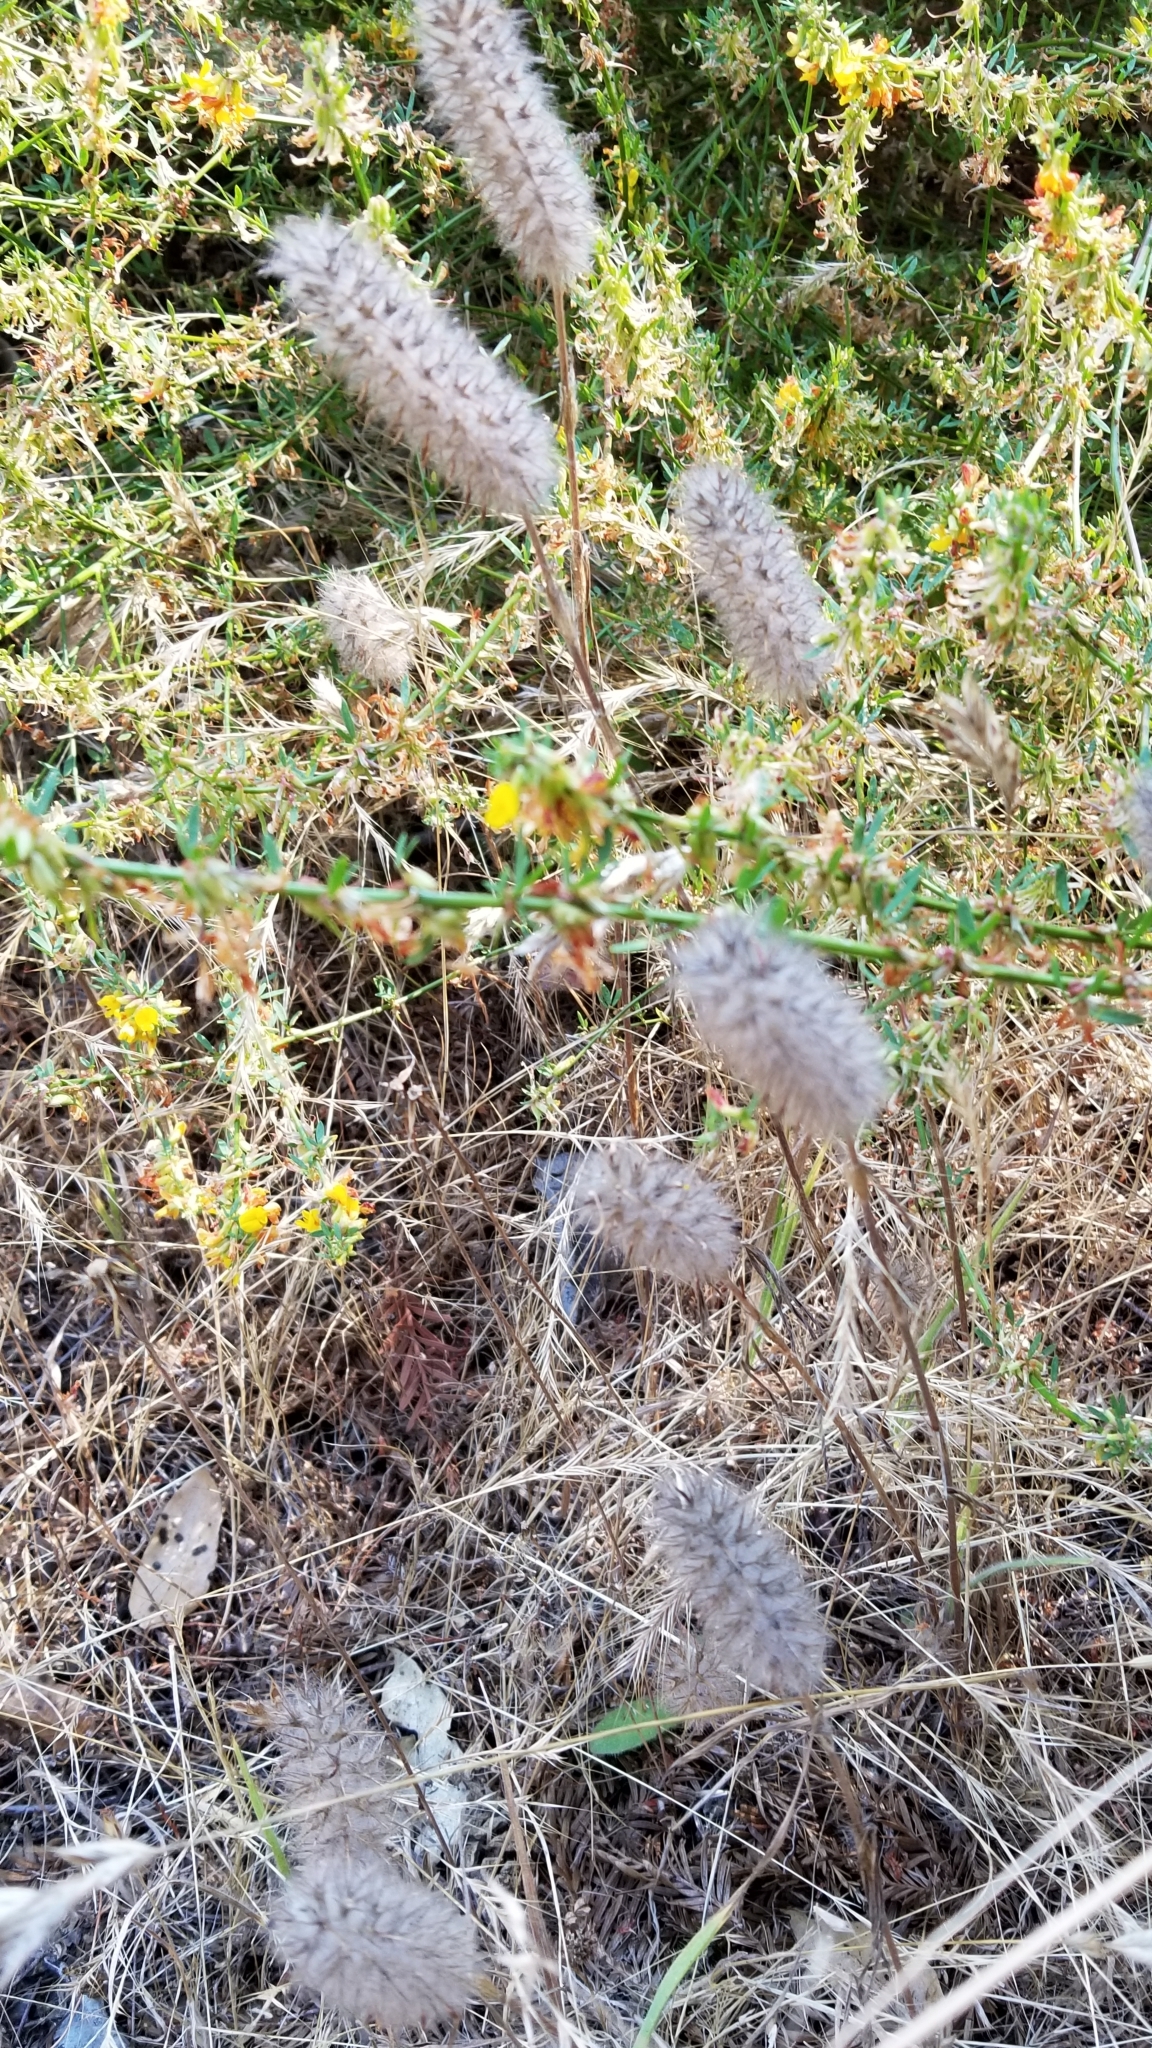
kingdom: Plantae
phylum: Tracheophyta
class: Magnoliopsida
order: Fabales
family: Fabaceae
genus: Trifolium
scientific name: Trifolium angustifolium
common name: Narrow clover
